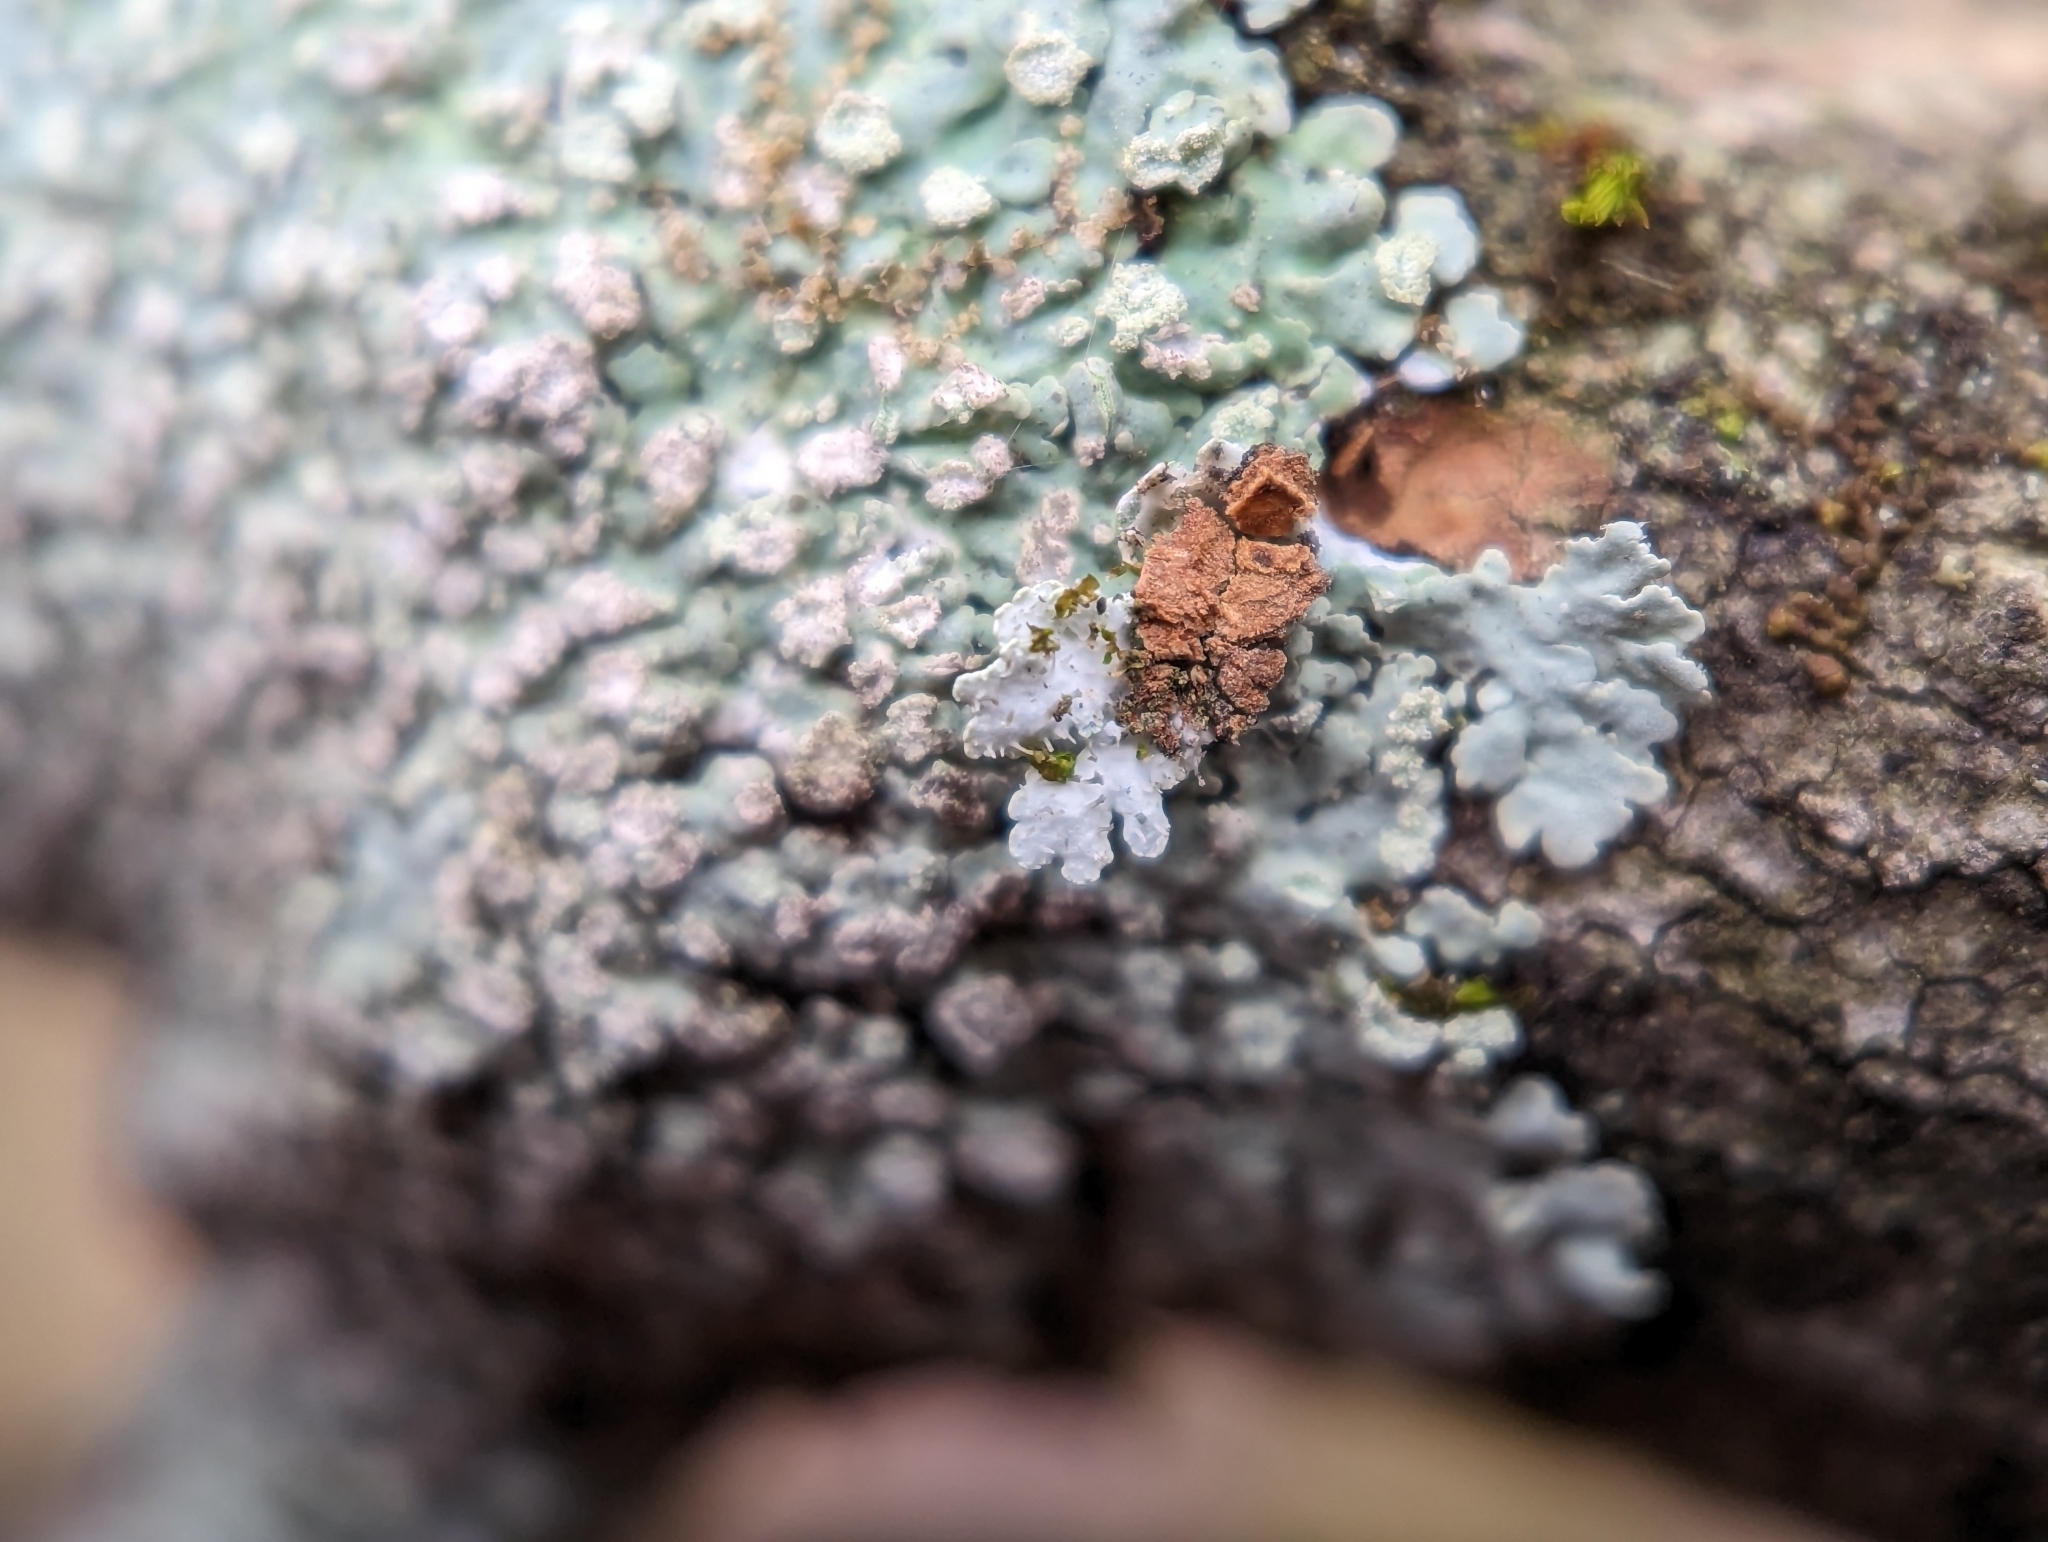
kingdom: Fungi
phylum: Ascomycota
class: Lecanoromycetes
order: Caliciales
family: Physciaceae
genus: Physcia
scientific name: Physcia americana
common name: American rosette lichen
